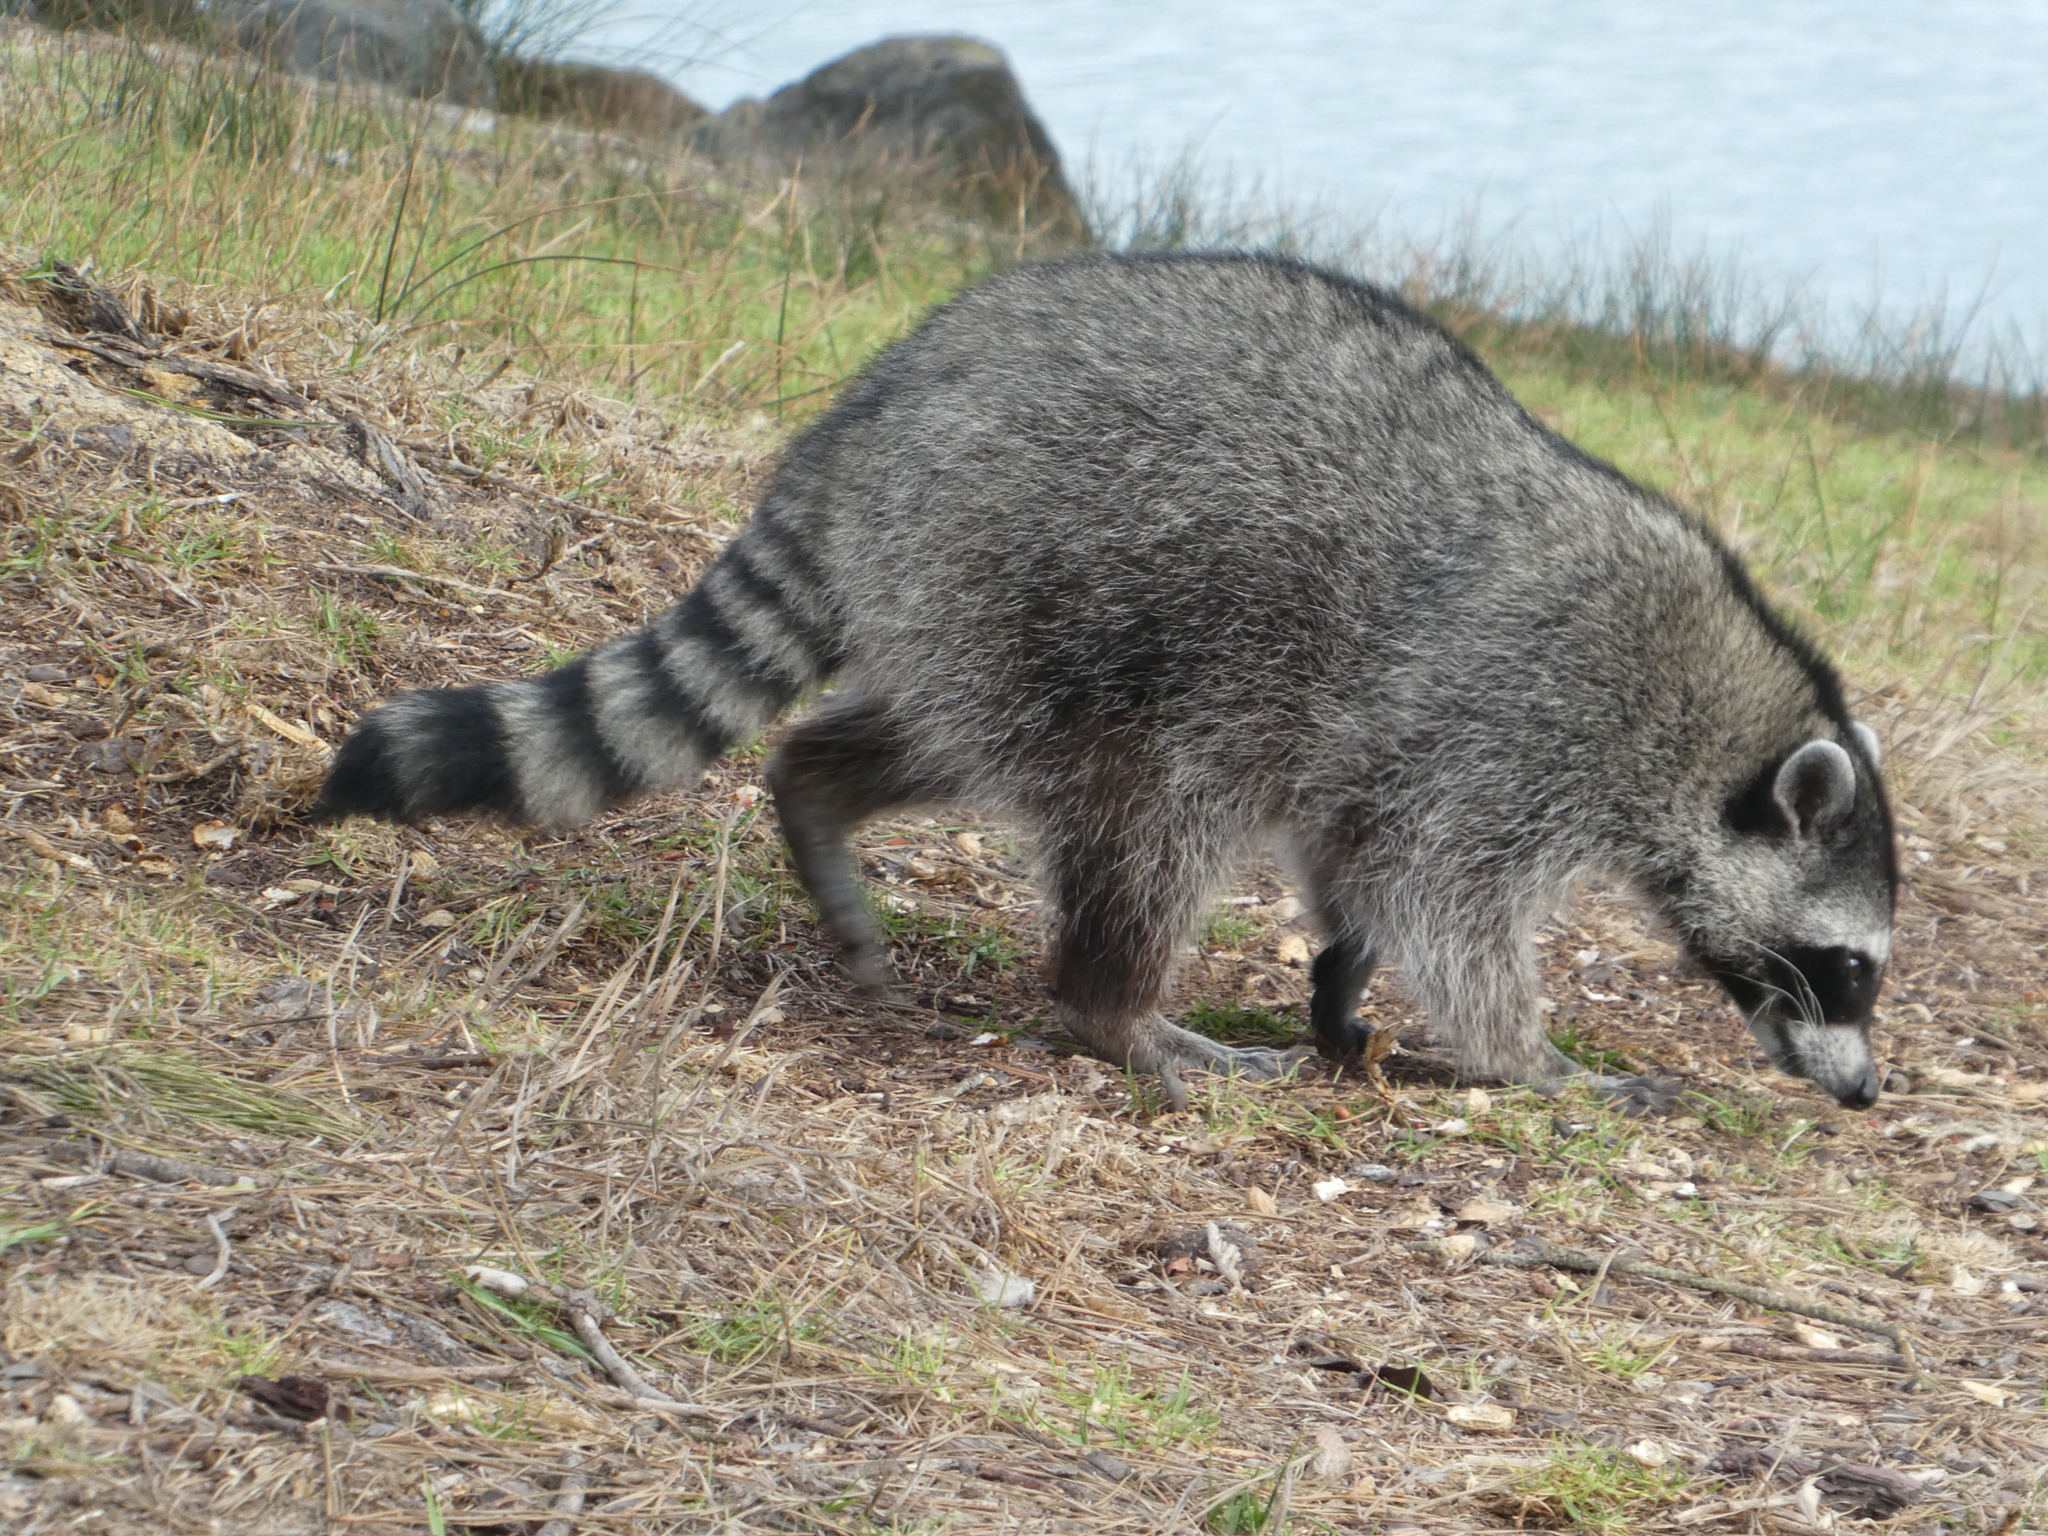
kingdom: Animalia
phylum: Chordata
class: Mammalia
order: Carnivora
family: Procyonidae
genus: Procyon
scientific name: Procyon lotor
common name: Raccoon
